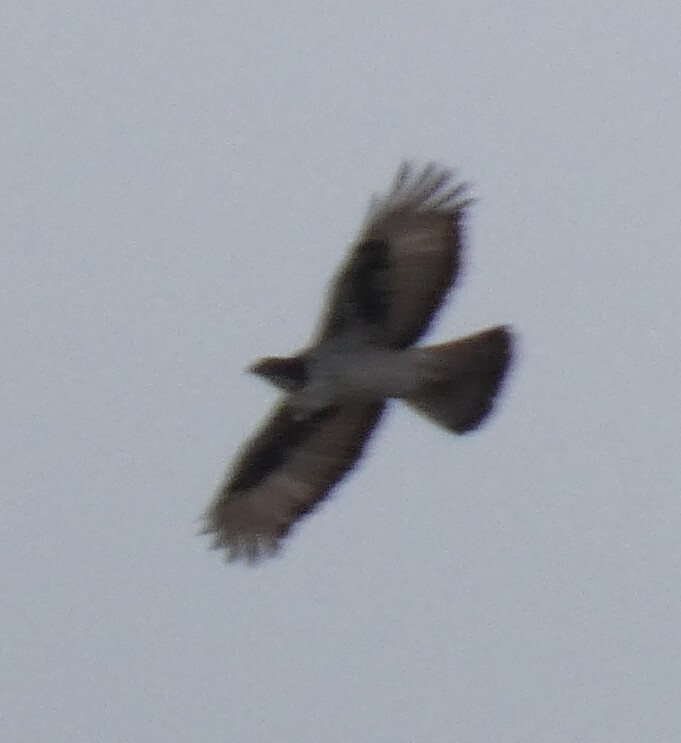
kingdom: Animalia
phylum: Chordata
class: Aves
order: Accipitriformes
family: Accipitridae
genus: Aquila
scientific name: Aquila spilogaster
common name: African hawk-eagle
